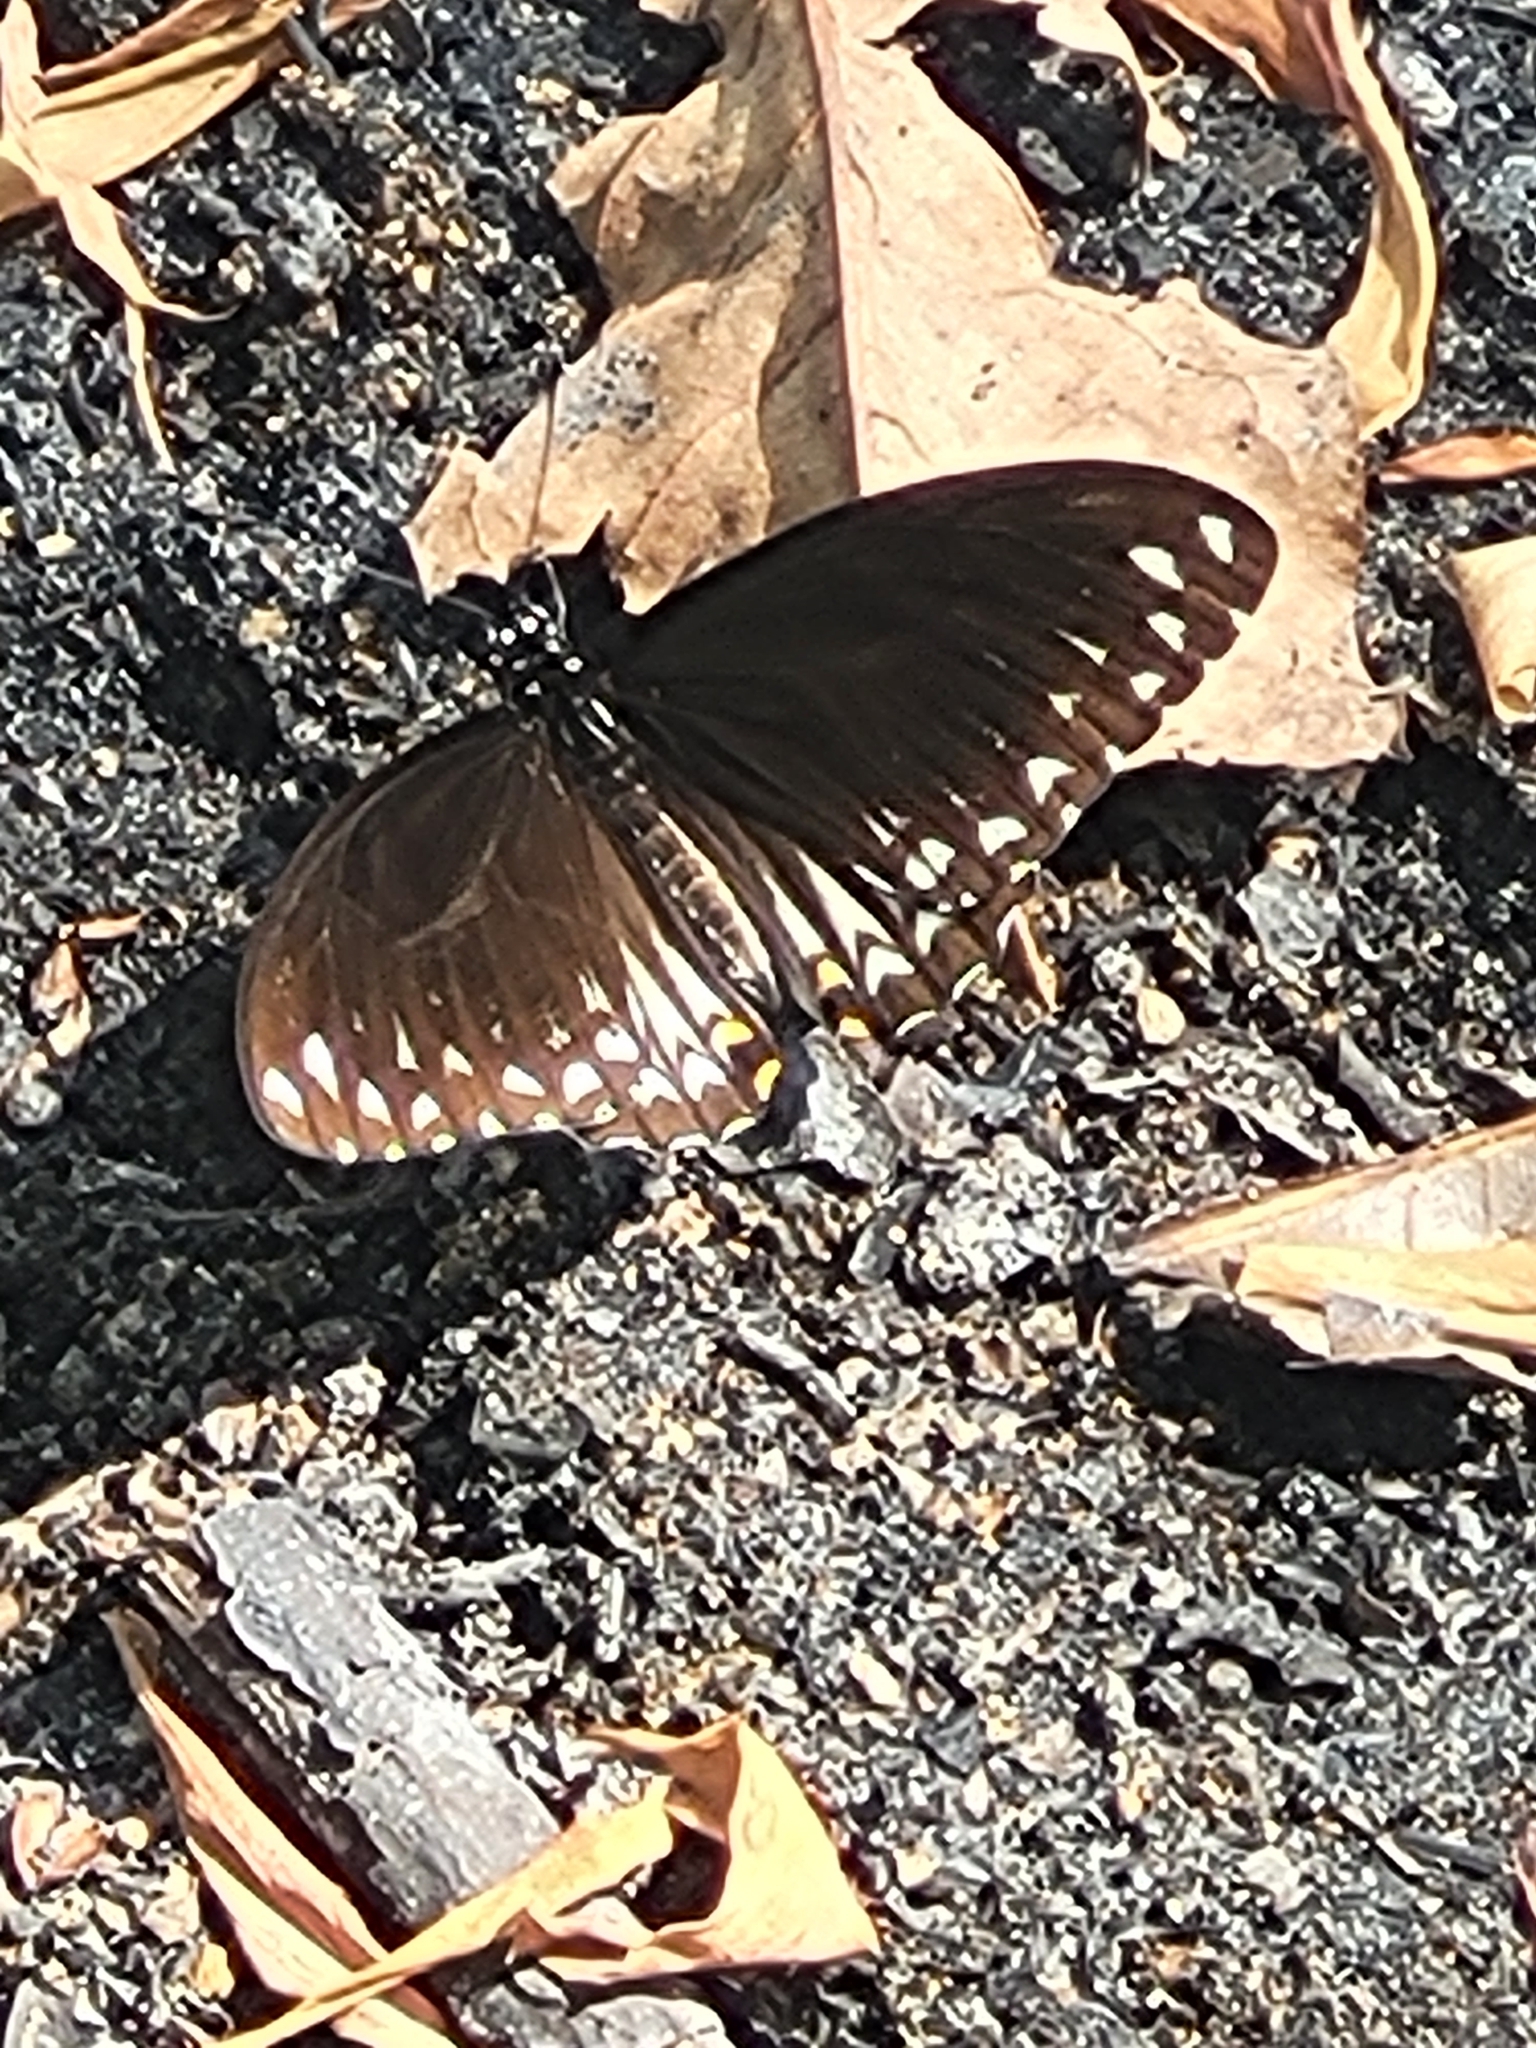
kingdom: Animalia
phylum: Arthropoda
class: Insecta
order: Lepidoptera
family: Papilionidae
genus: Chilasa
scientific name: Chilasa clytia
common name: Common mime
